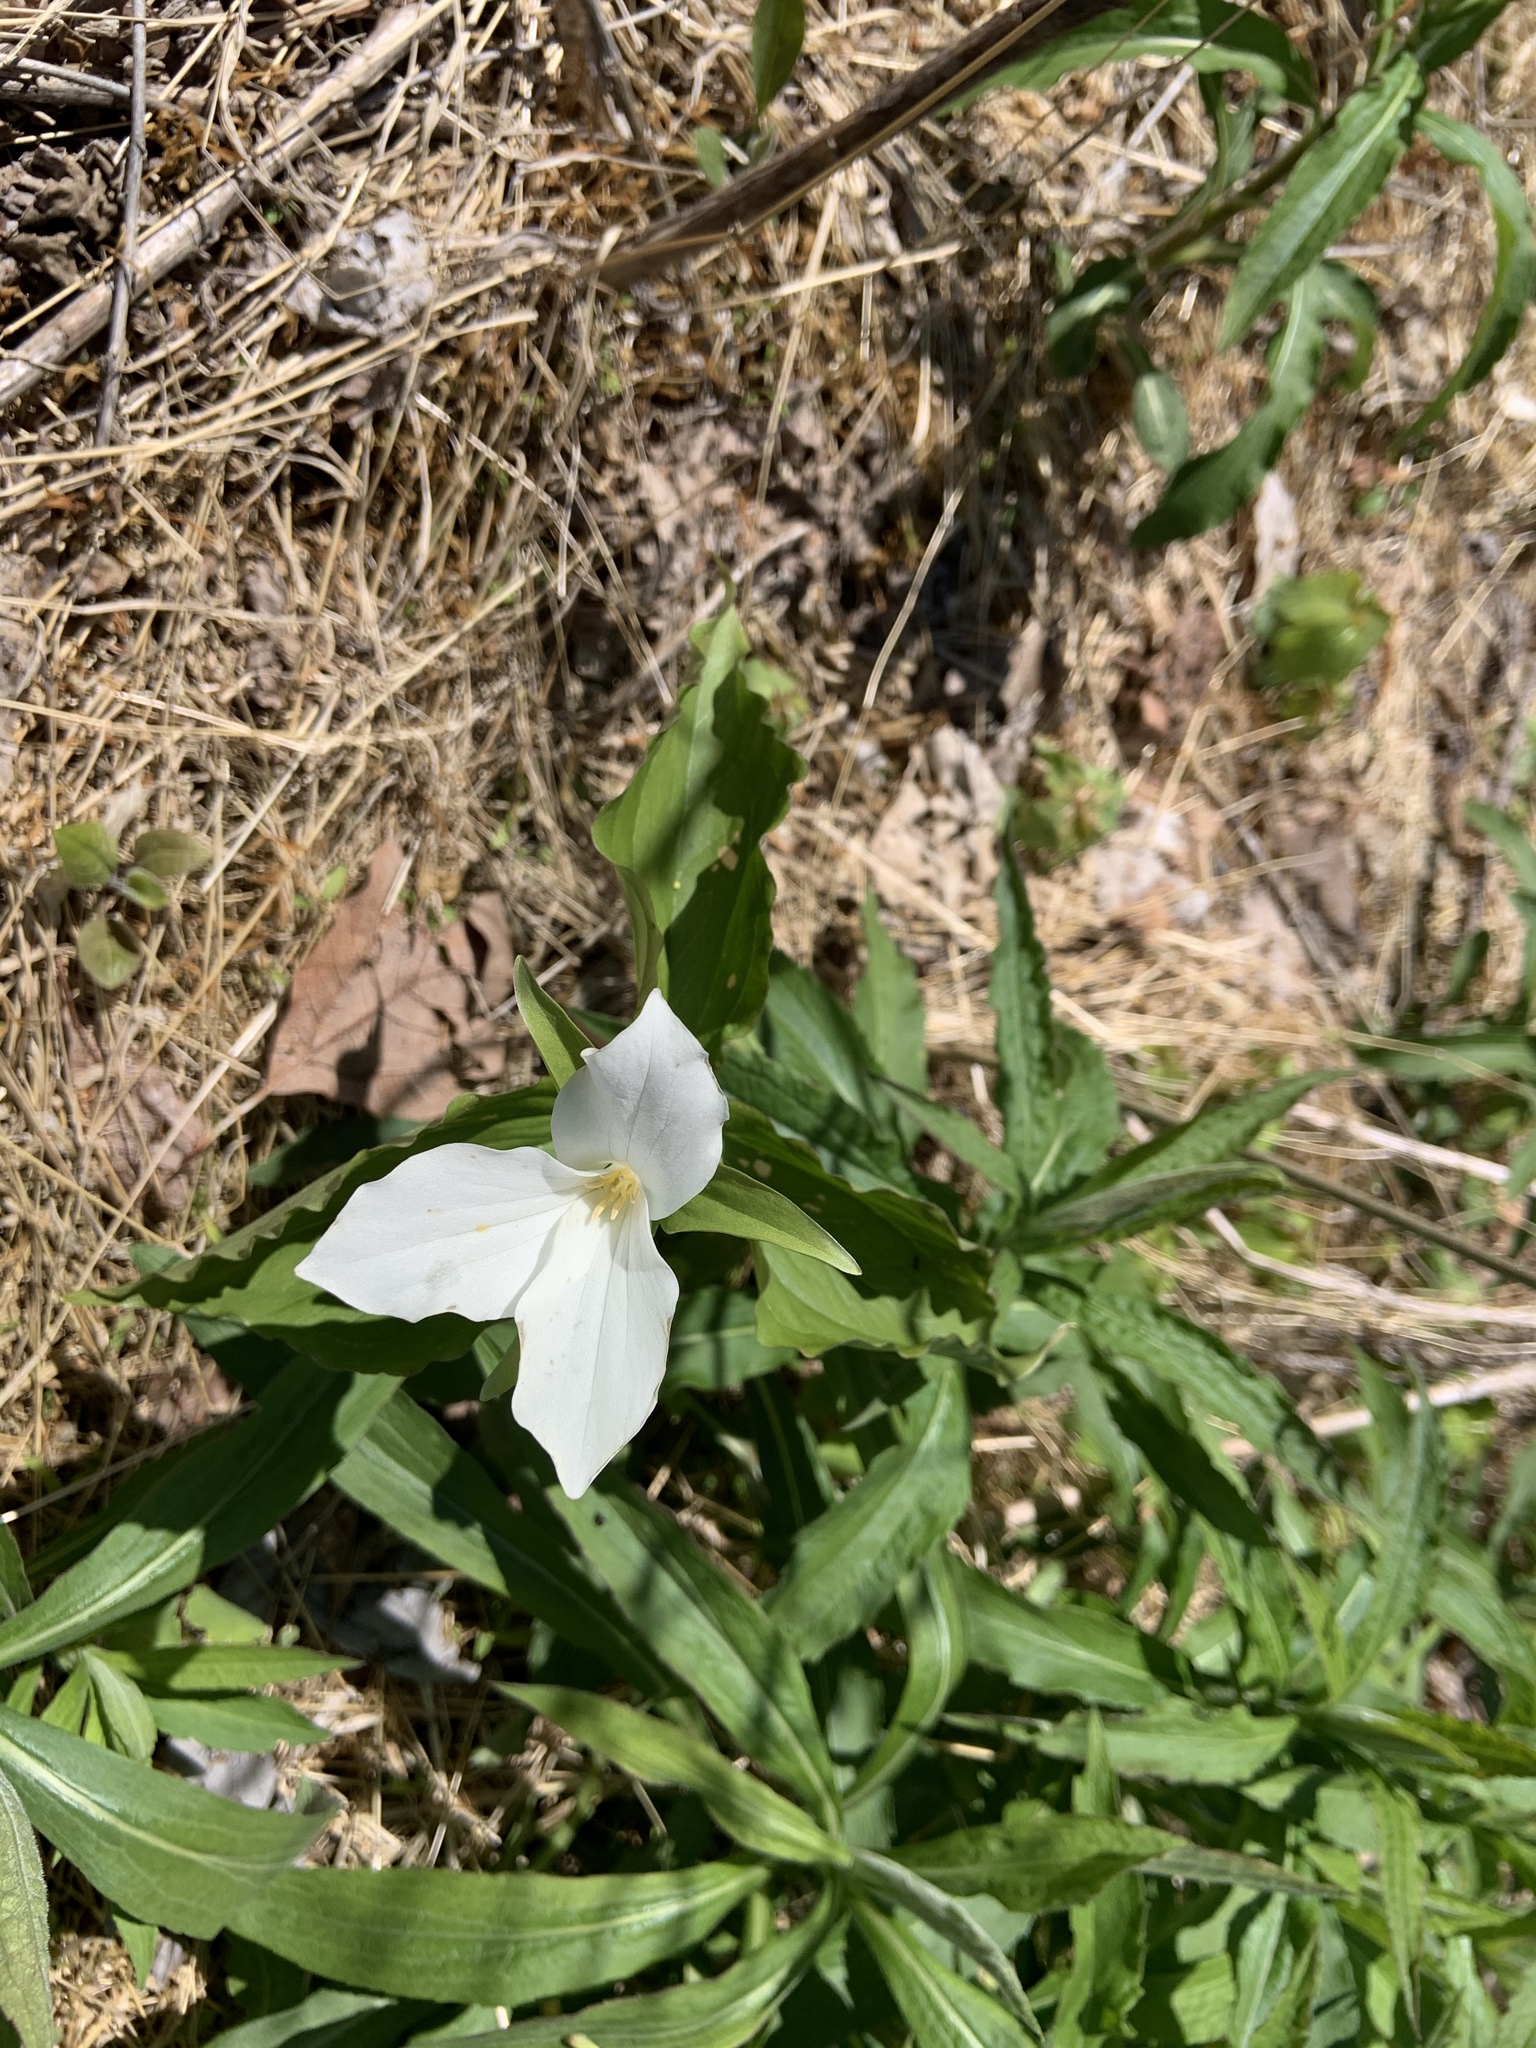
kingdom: Plantae
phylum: Tracheophyta
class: Liliopsida
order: Liliales
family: Melanthiaceae
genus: Trillium
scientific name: Trillium grandiflorum
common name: Great white trillium
